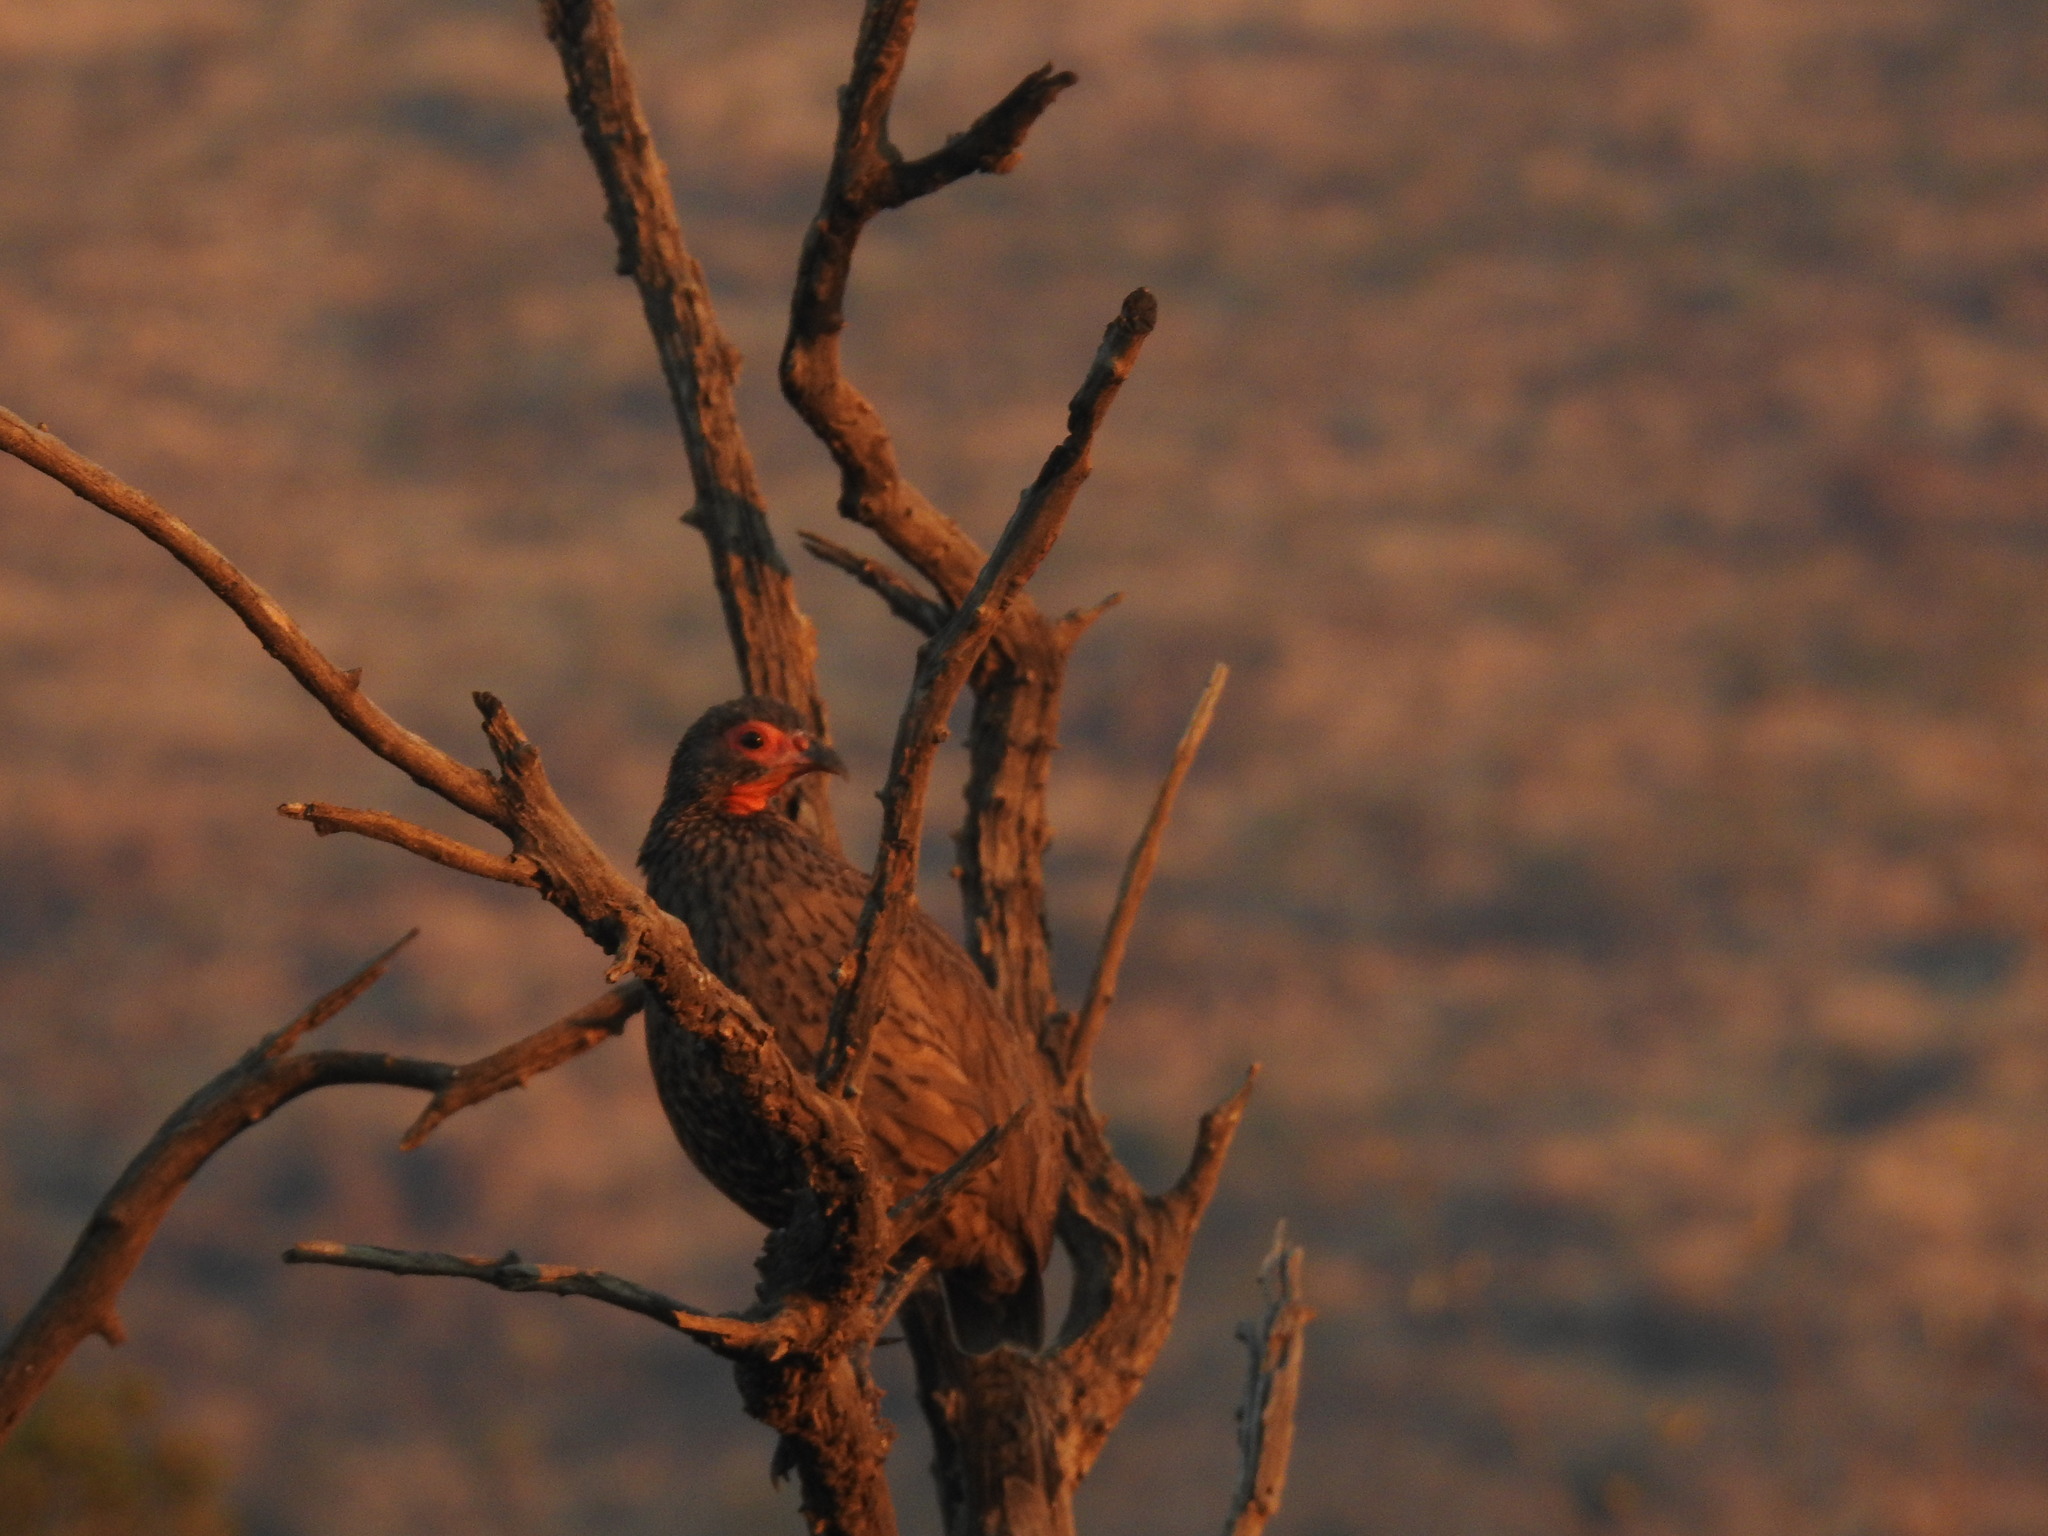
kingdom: Animalia
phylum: Chordata
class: Aves
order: Galliformes
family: Phasianidae
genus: Pternistis
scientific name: Pternistis swainsonii
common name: Swainson's spurfowl
